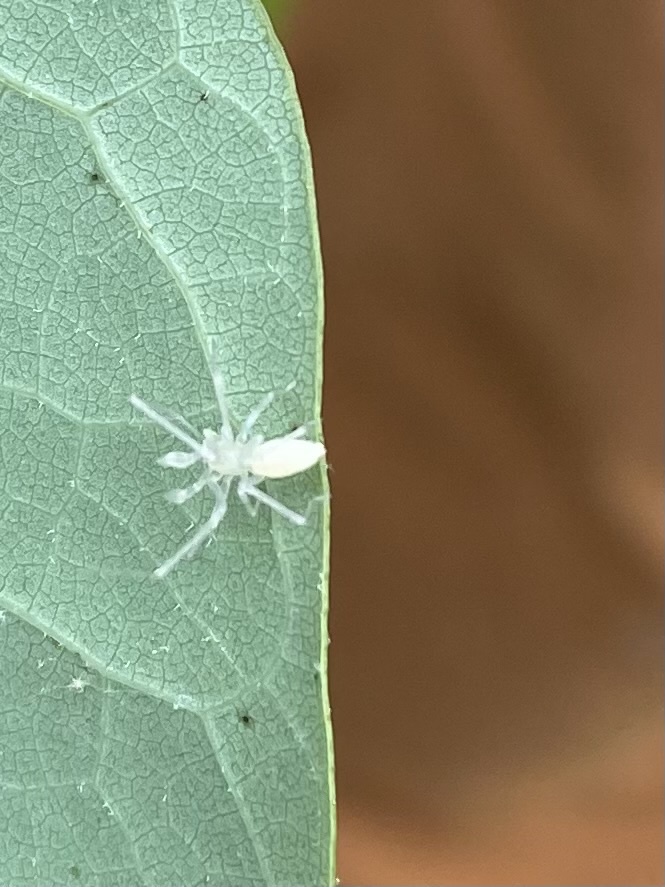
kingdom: Animalia
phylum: Arthropoda
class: Arachnida
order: Araneae
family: Anyphaenidae
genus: Wulfila
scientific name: Wulfila albens
